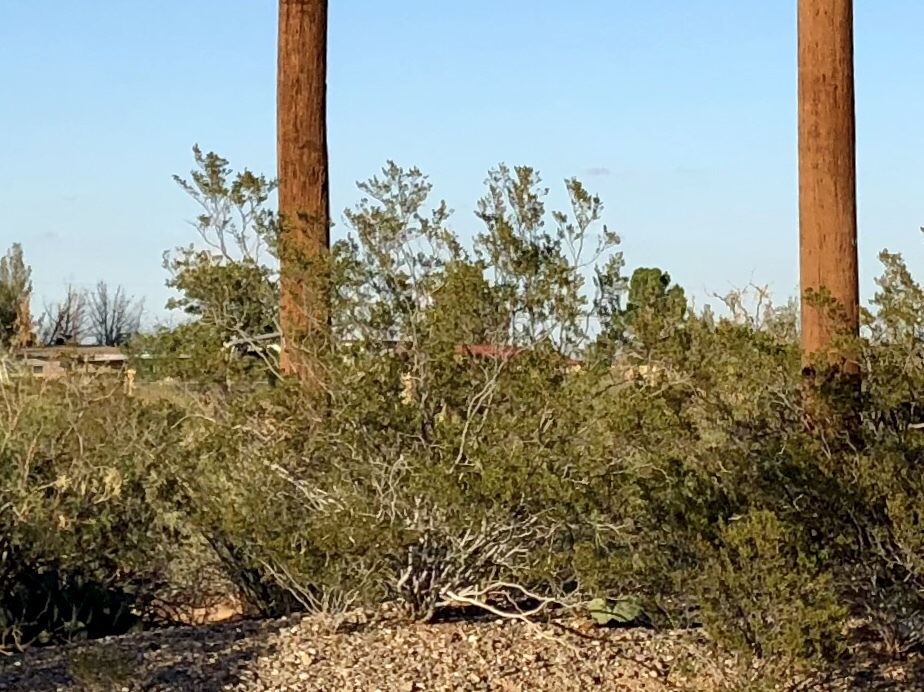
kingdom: Plantae
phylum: Tracheophyta
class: Magnoliopsida
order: Zygophyllales
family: Zygophyllaceae
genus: Larrea
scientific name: Larrea tridentata
